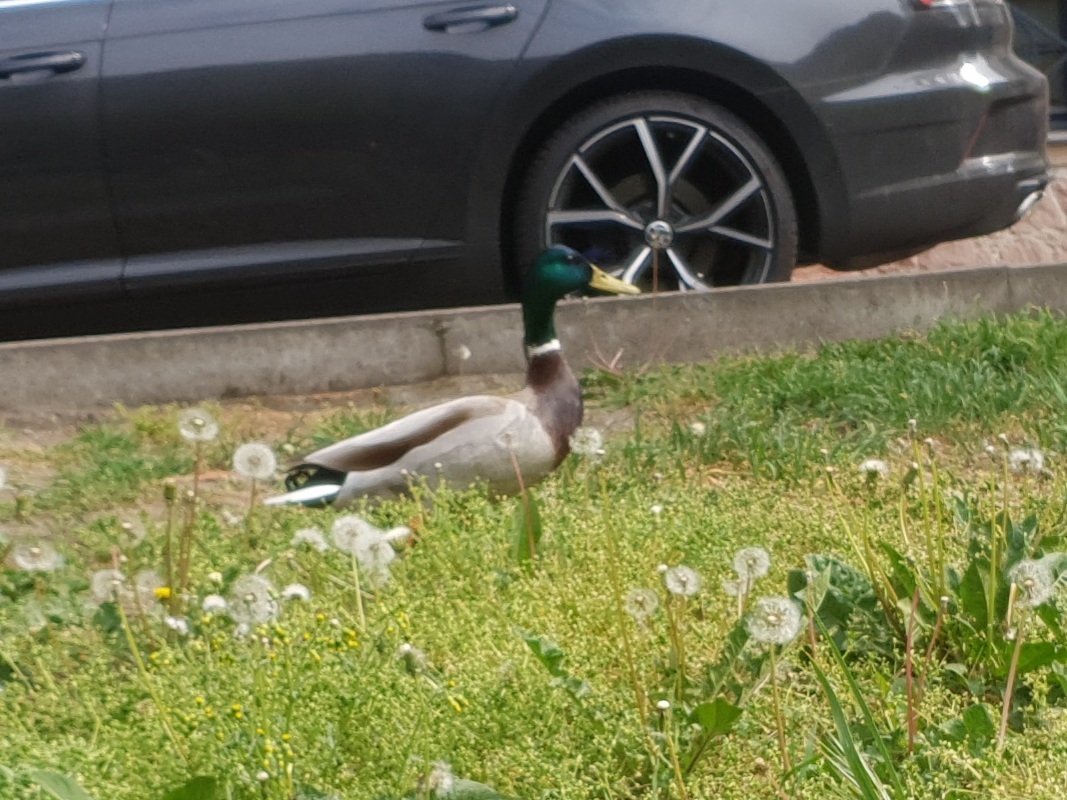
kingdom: Animalia
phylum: Chordata
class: Aves
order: Anseriformes
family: Anatidae
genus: Anas
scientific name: Anas platyrhynchos
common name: Mallard
